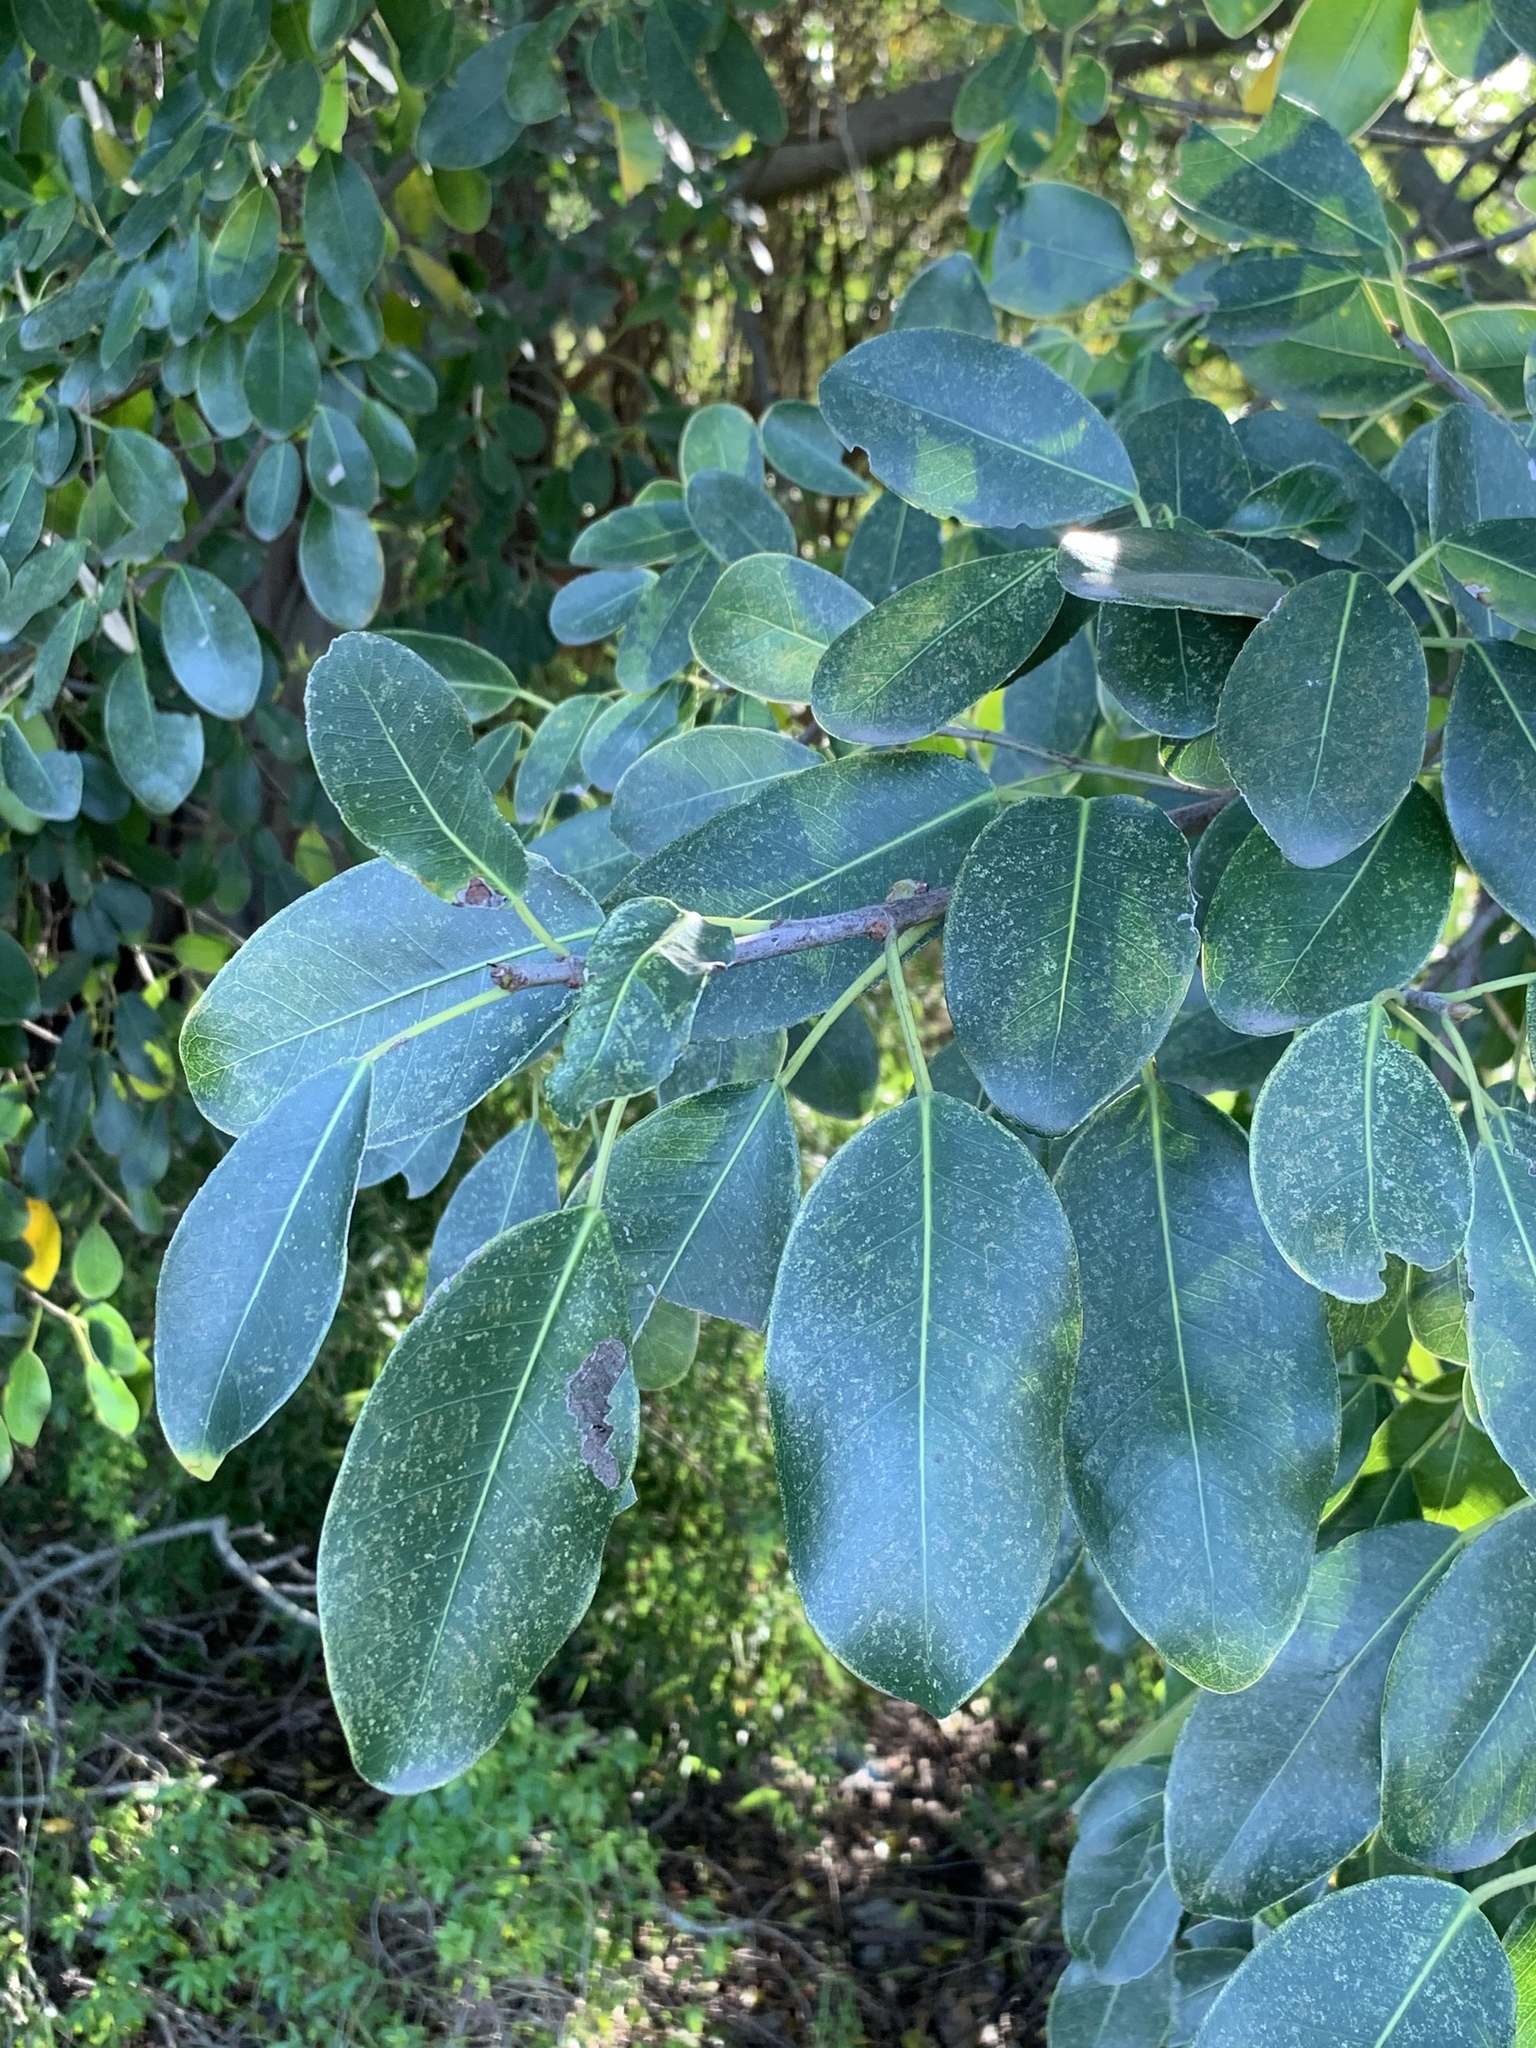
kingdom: Plantae
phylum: Tracheophyta
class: Magnoliopsida
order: Rosales
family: Moraceae
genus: Ficus
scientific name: Ficus thonningii
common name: Fig
